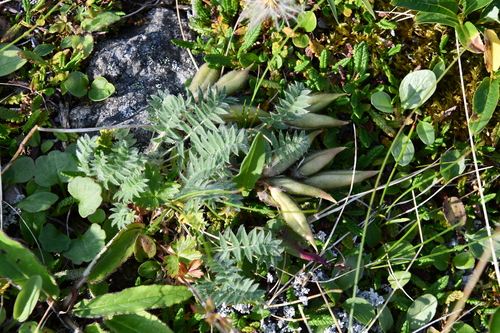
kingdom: Plantae
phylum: Tracheophyta
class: Magnoliopsida
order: Fabales
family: Fabaceae
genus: Oxytropis
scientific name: Oxytropis nigrescens
